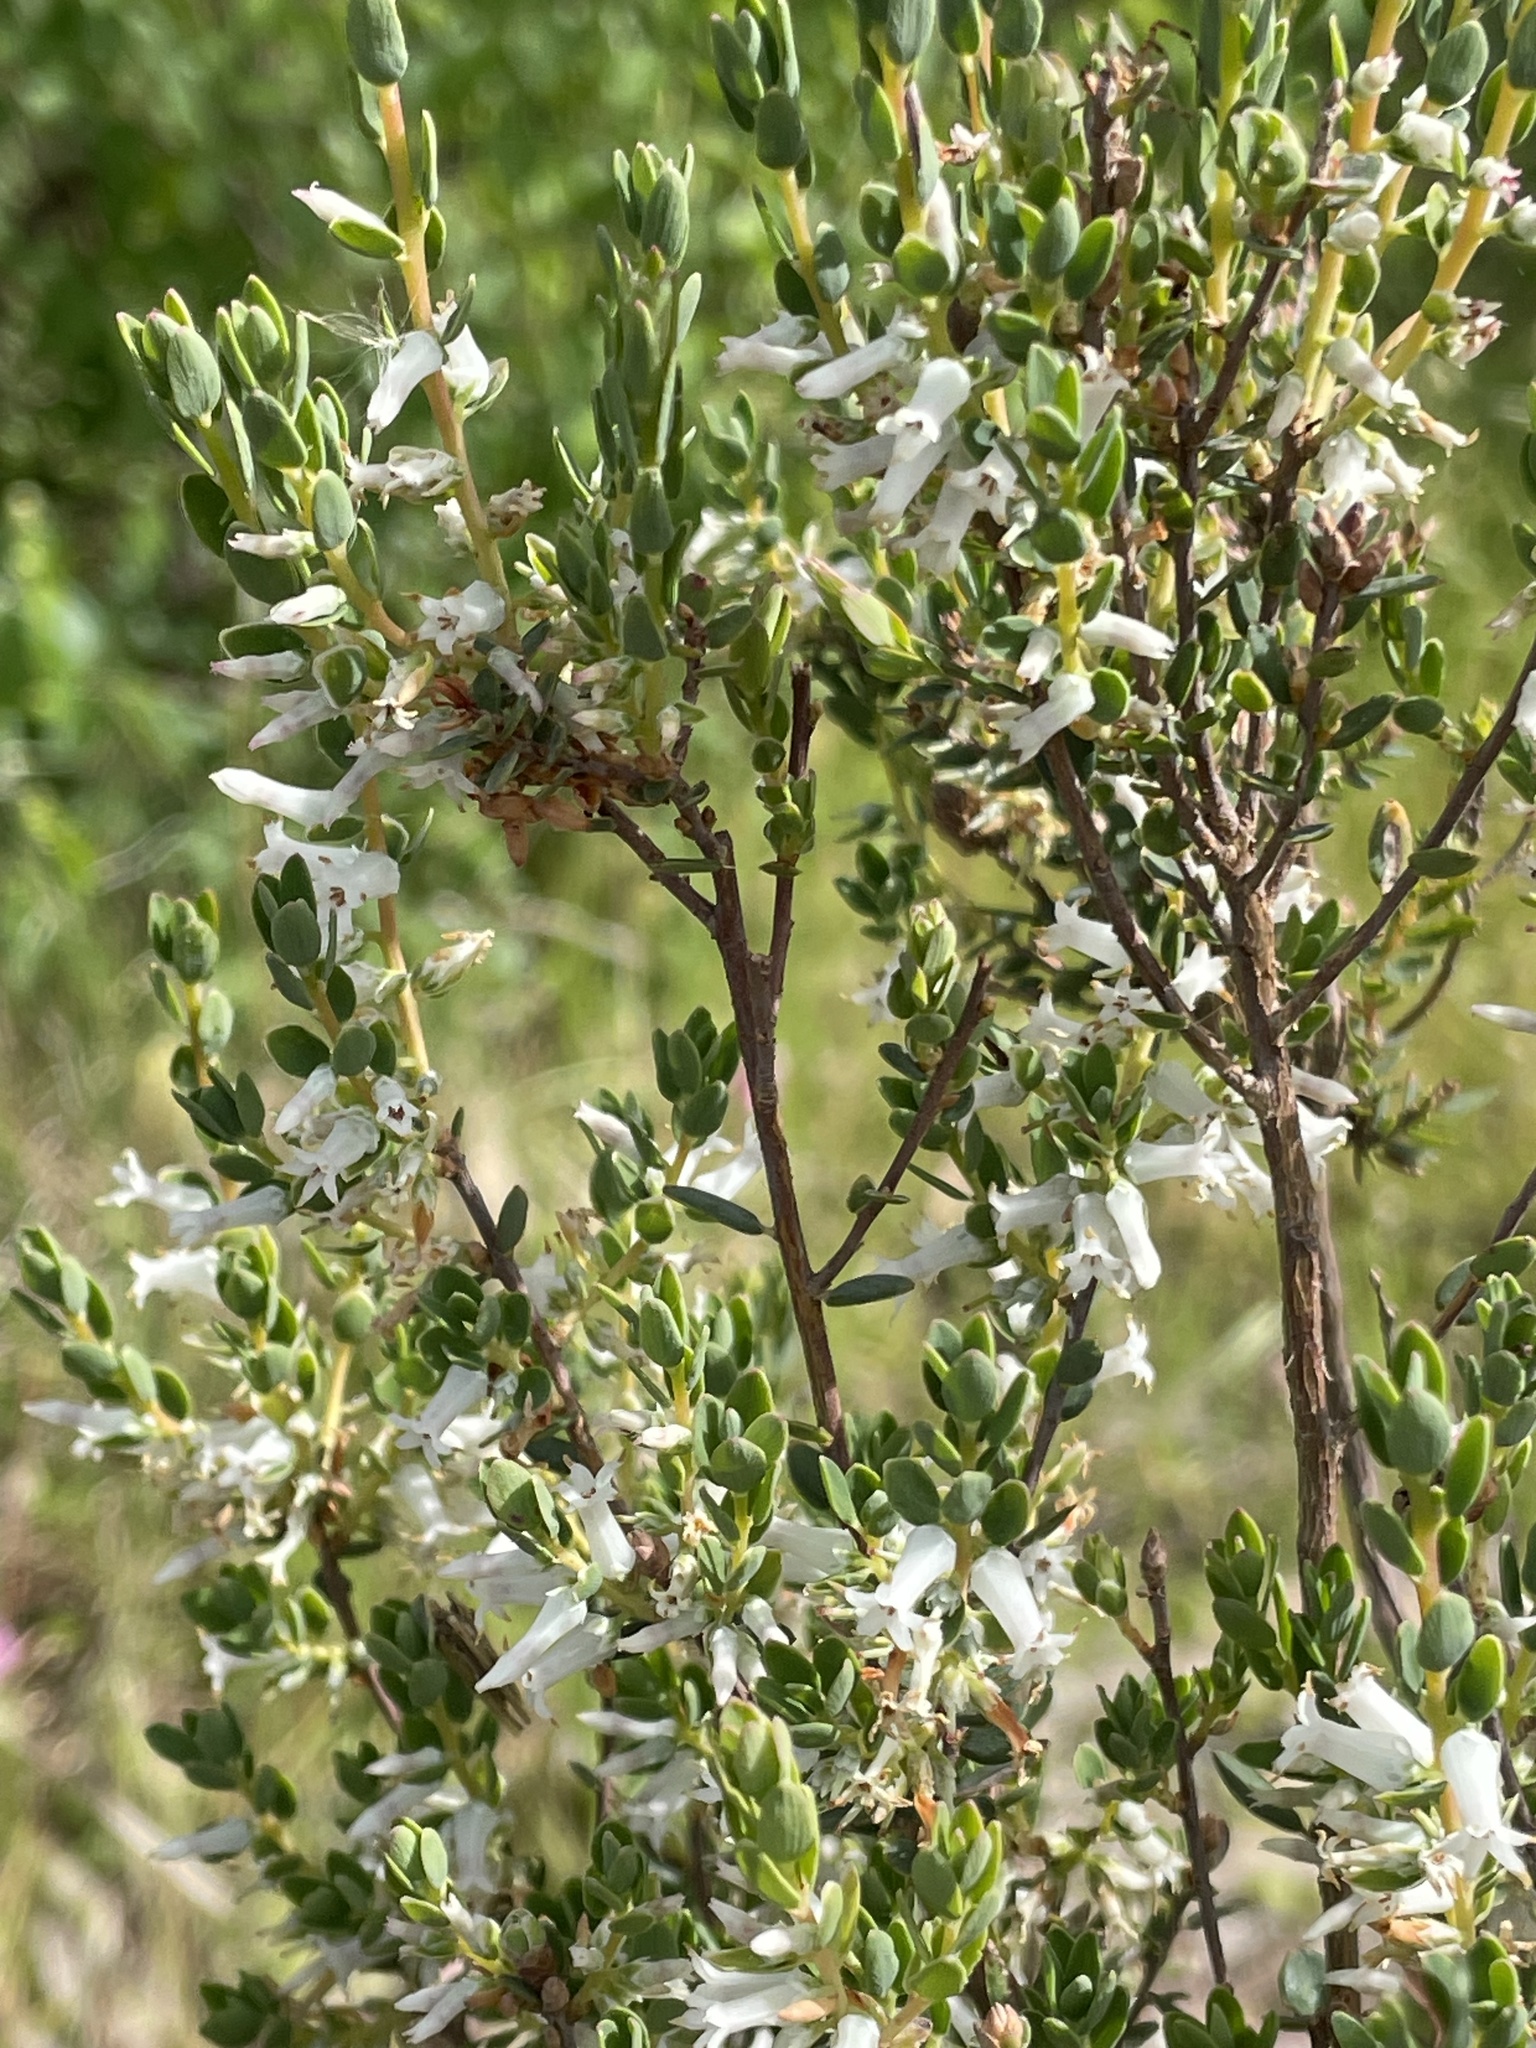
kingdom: Plantae
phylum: Tracheophyta
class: Magnoliopsida
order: Ericales
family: Ericaceae
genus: Brachyloma
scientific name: Brachyloma daphnoides
